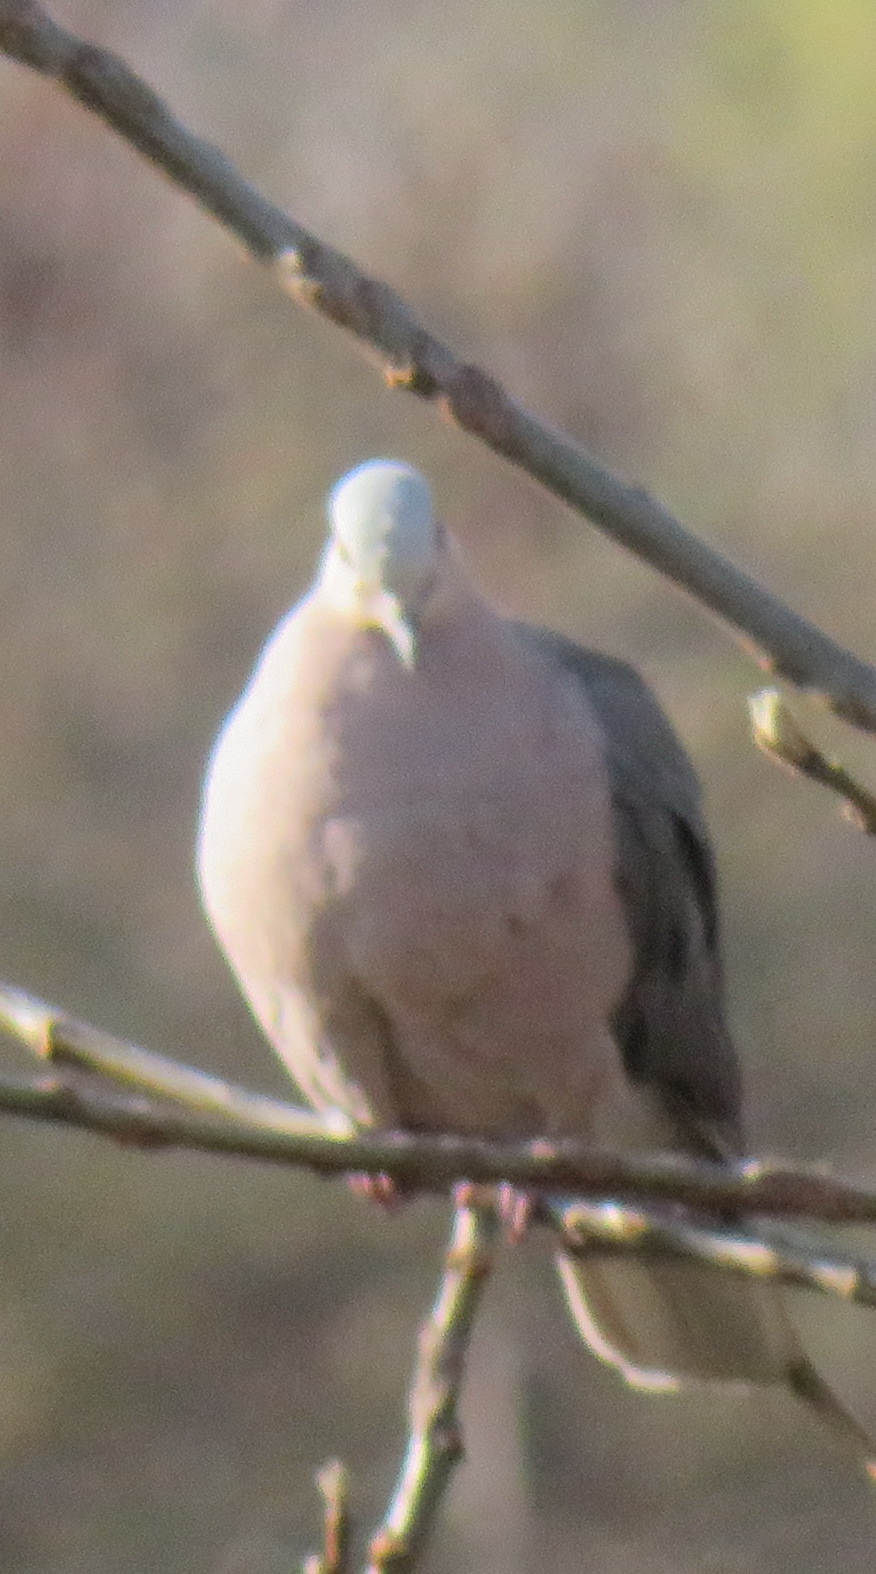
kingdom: Animalia
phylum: Chordata
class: Aves
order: Columbiformes
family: Columbidae
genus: Streptopelia
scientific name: Streptopelia semitorquata
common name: Red-eyed dove
